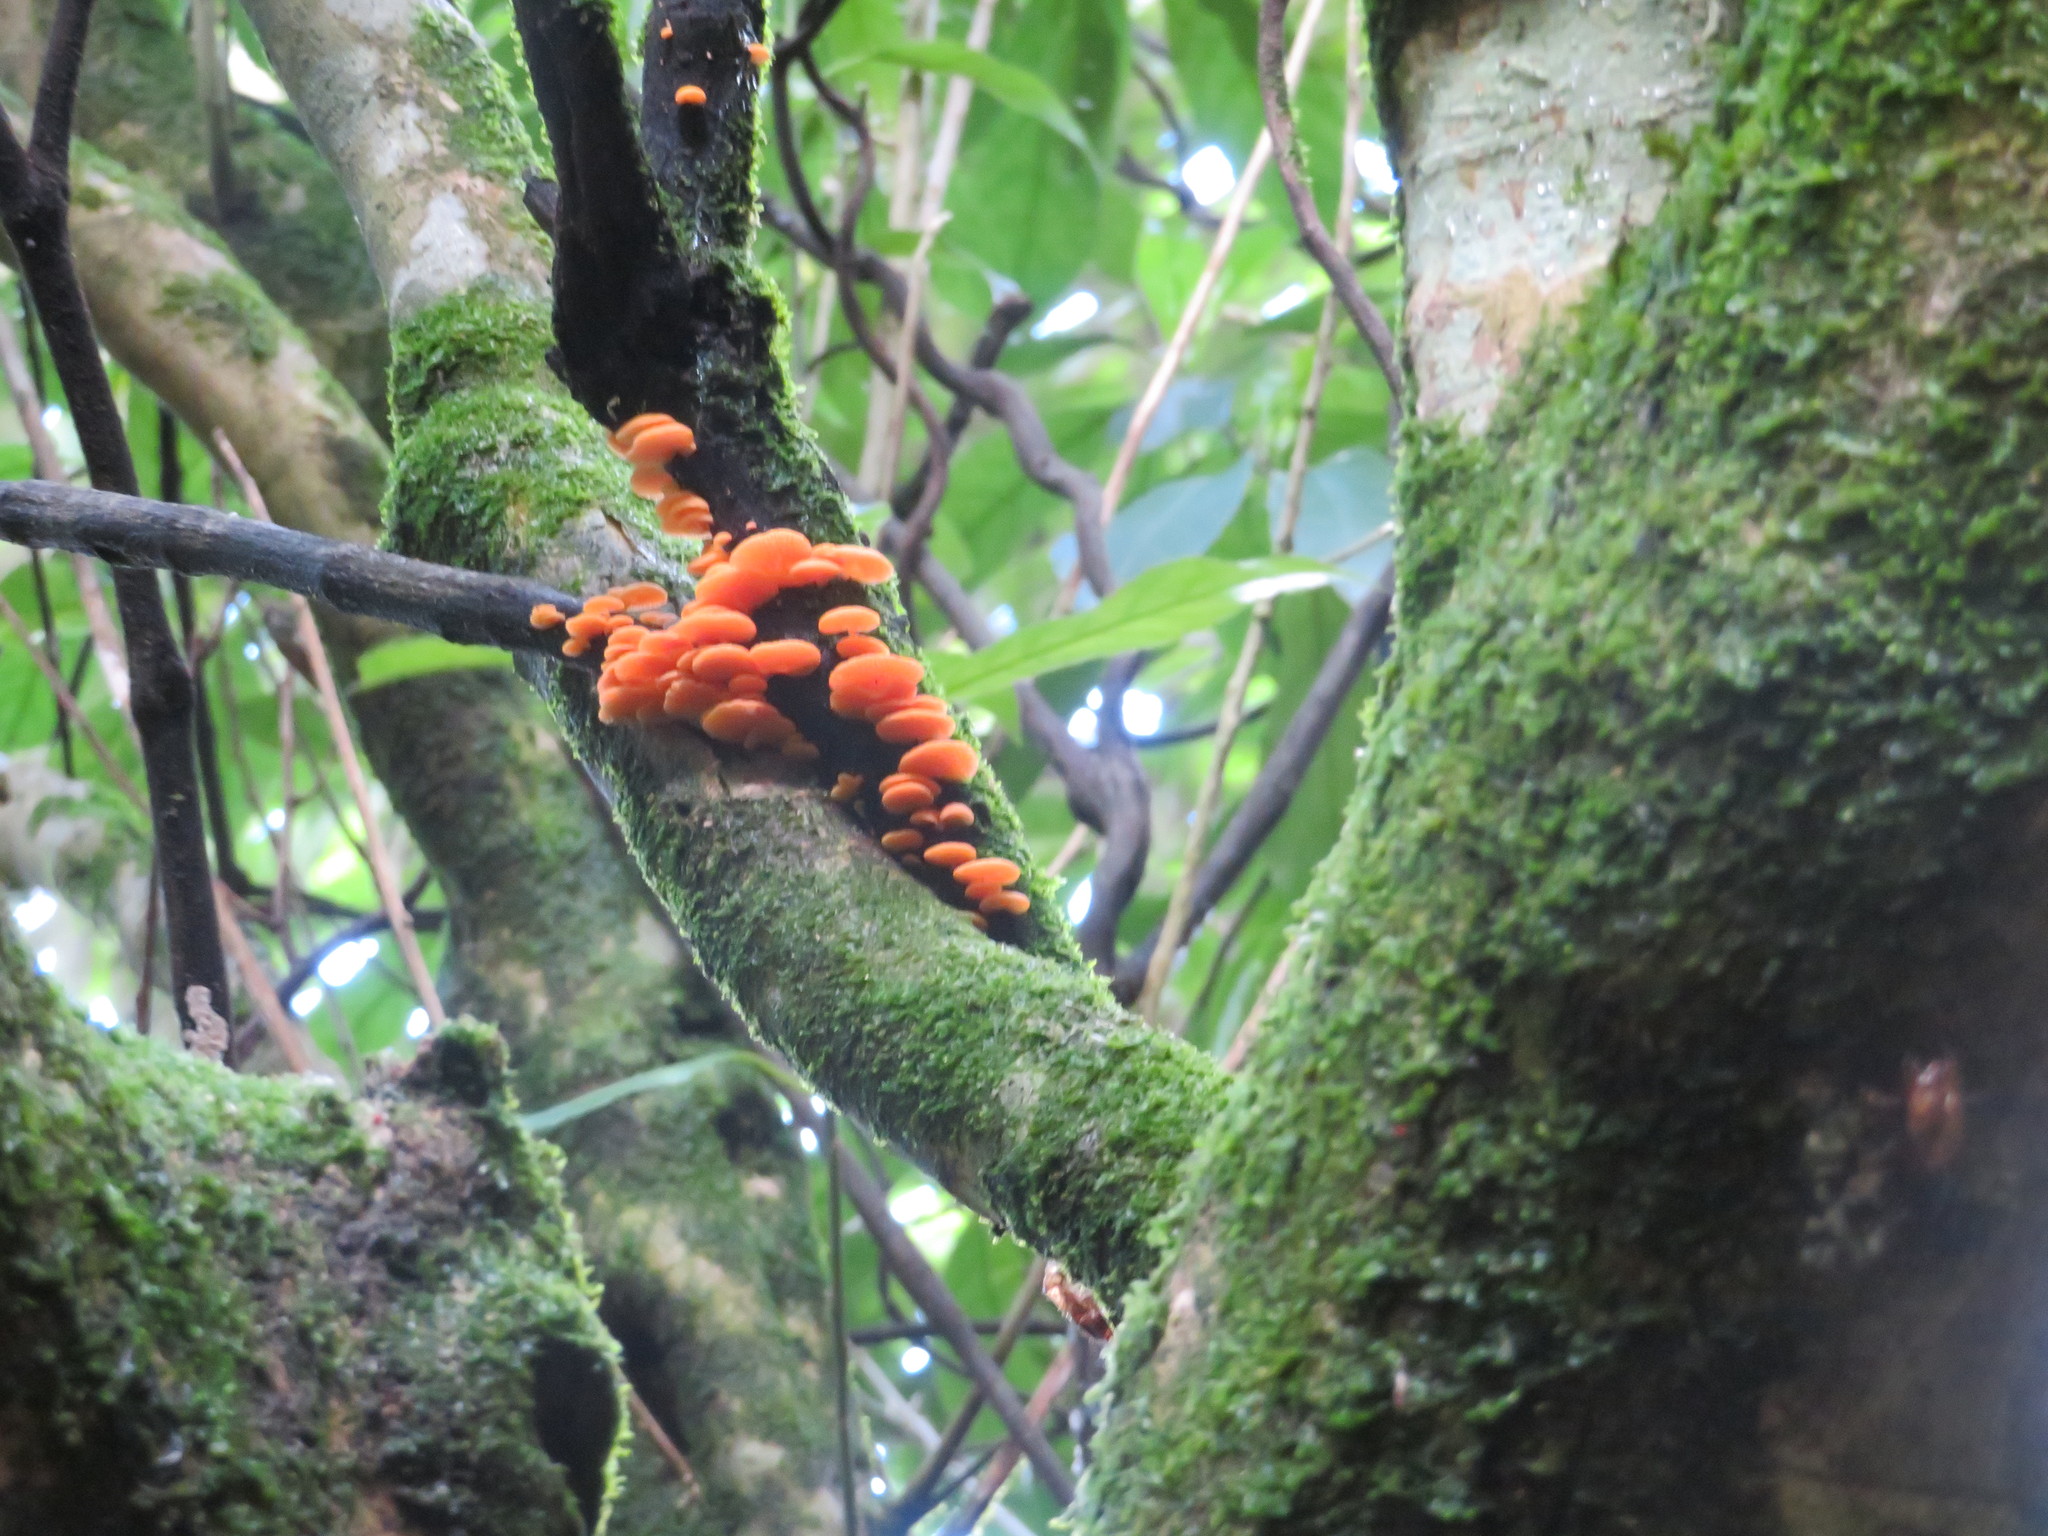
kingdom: Fungi
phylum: Basidiomycota
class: Agaricomycetes
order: Agaricales
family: Mycenaceae
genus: Favolaschia
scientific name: Favolaschia claudopus
